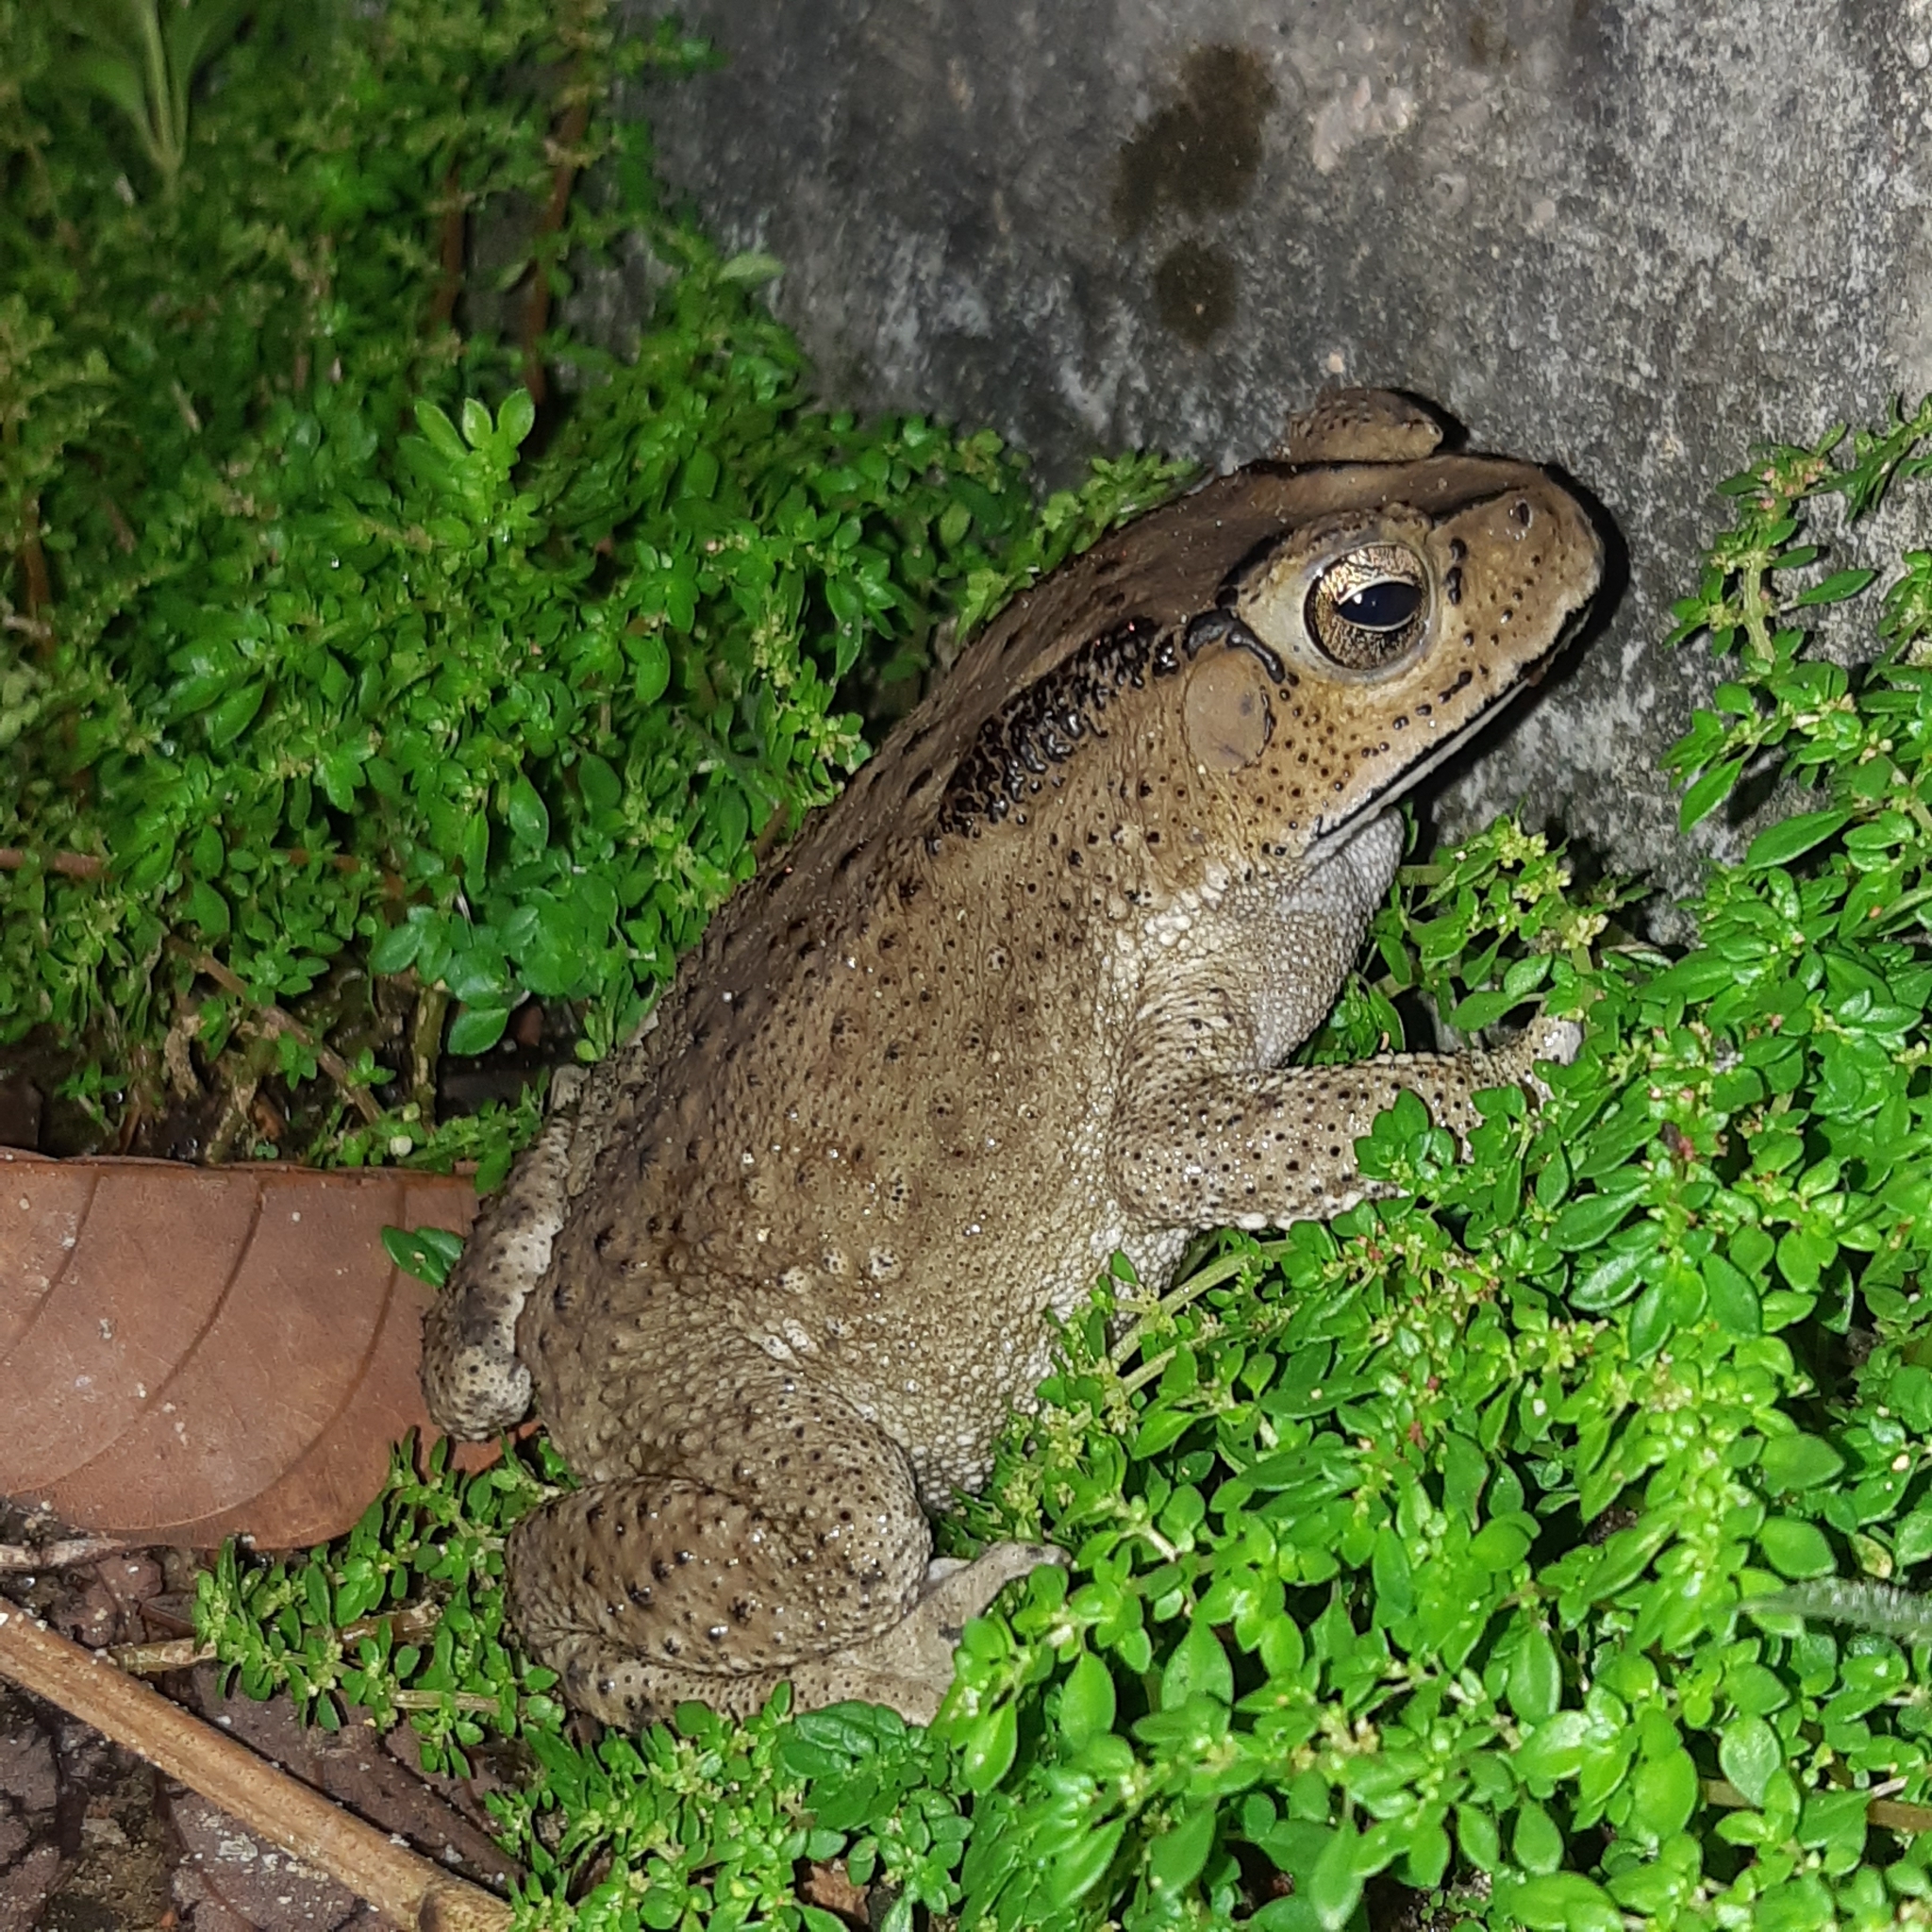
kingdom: Animalia
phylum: Chordata
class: Amphibia
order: Anura
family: Bufonidae
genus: Duttaphrynus
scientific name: Duttaphrynus melanostictus
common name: Common sunda toad
